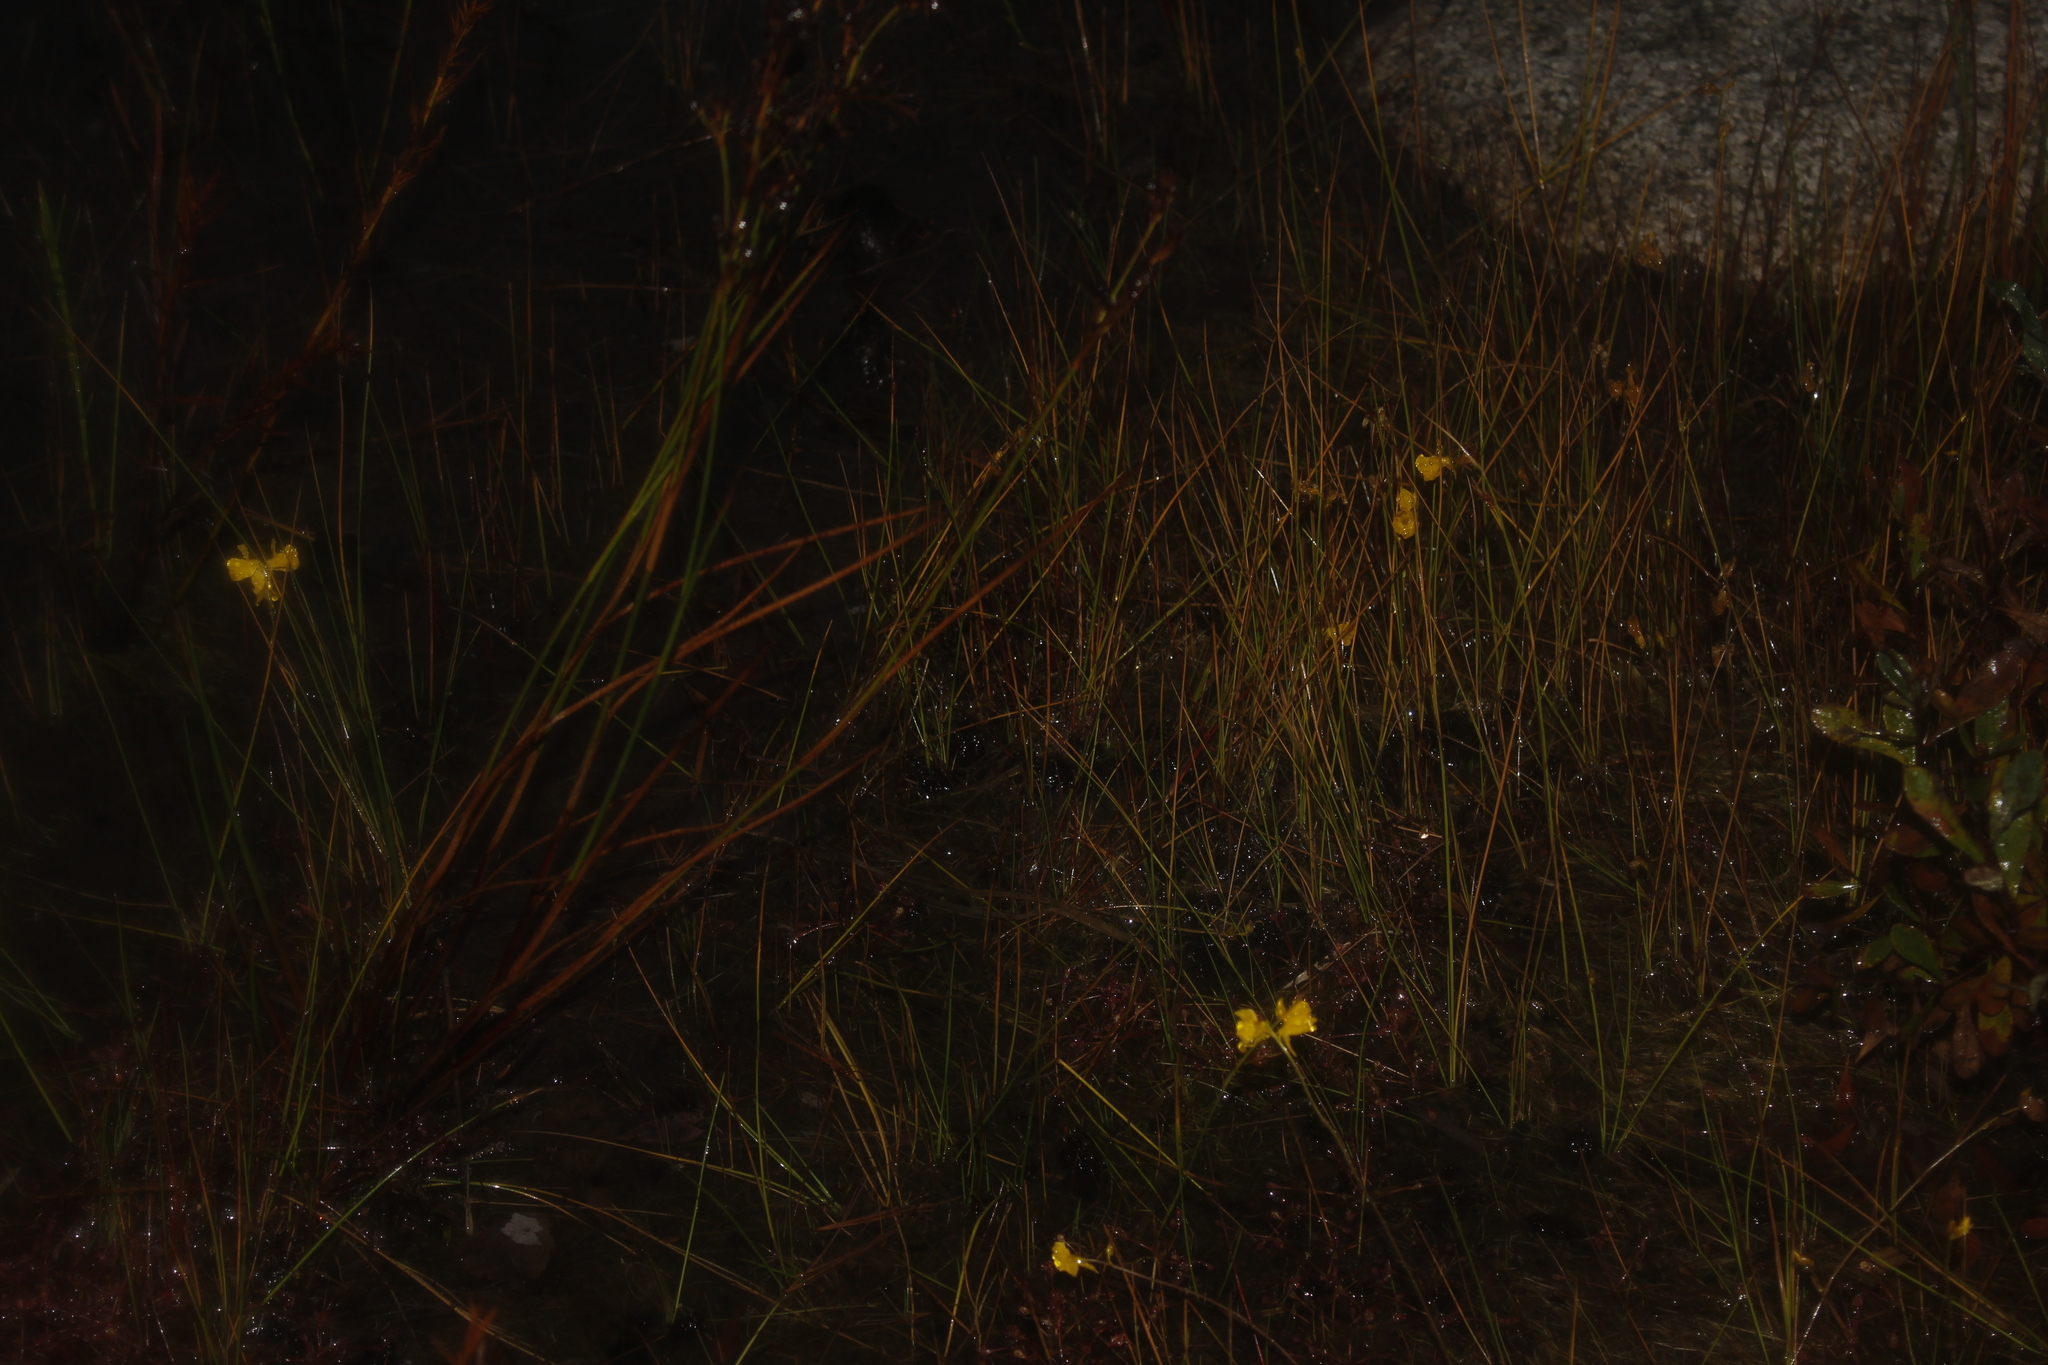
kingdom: Plantae
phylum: Tracheophyta
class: Magnoliopsida
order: Lamiales
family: Lentibulariaceae
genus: Utricularia
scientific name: Utricularia cornuta
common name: Horned bladderwort
